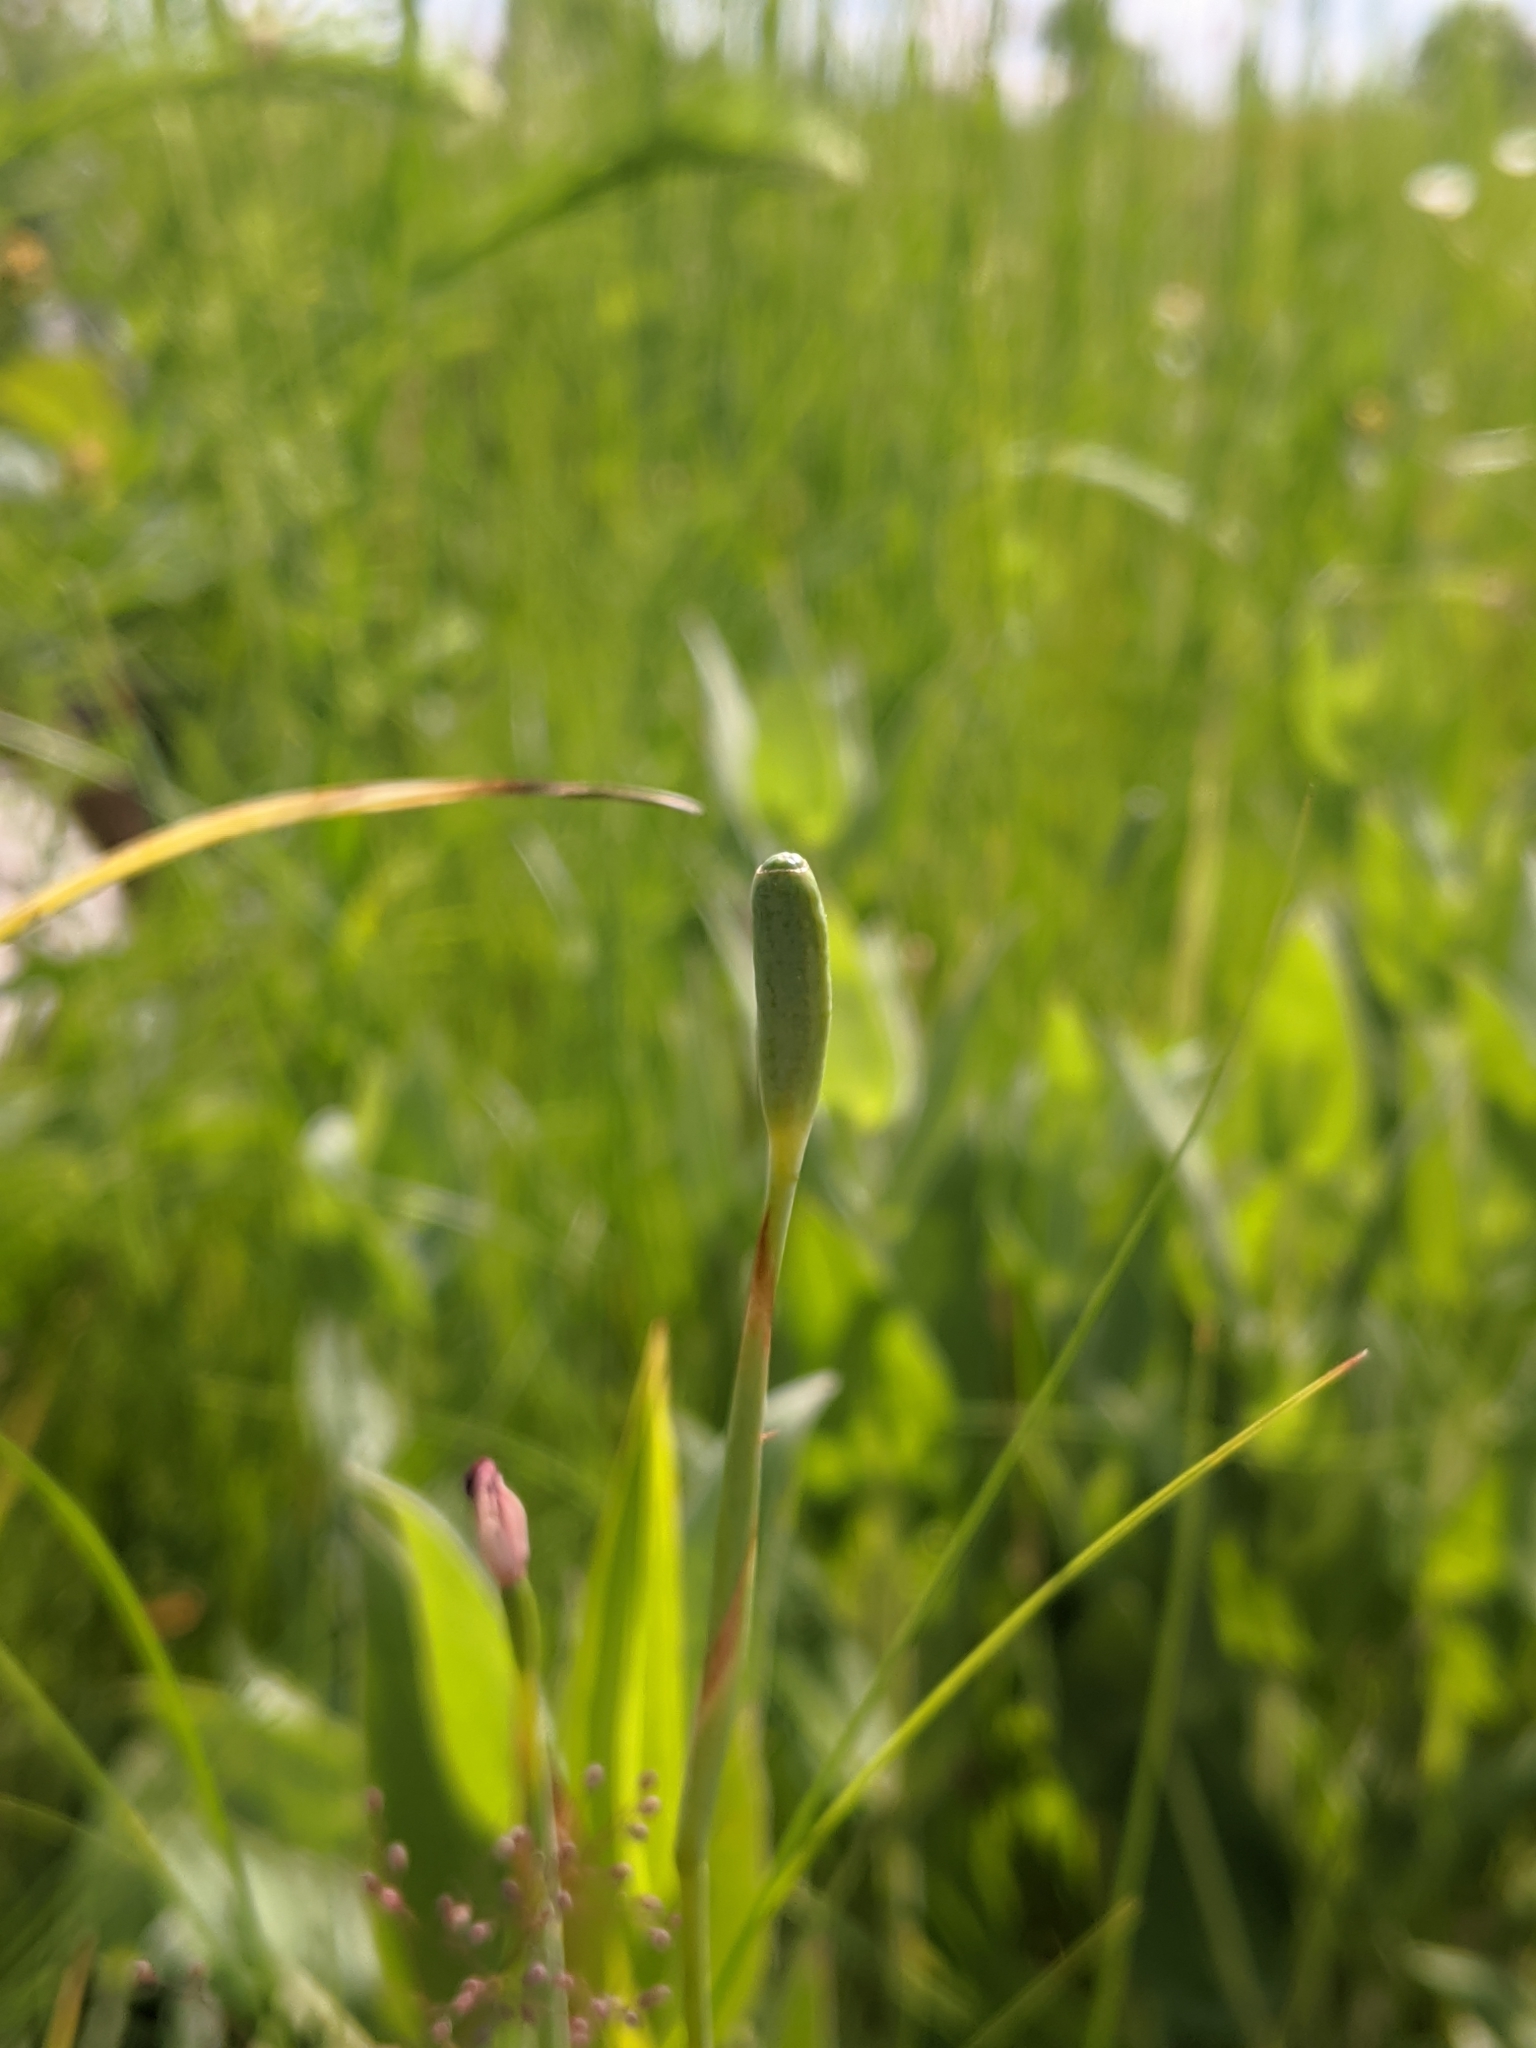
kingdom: Plantae
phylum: Tracheophyta
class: Liliopsida
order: Asparagales
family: Iridaceae
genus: Nemastylis
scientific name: Nemastylis nuttallii
